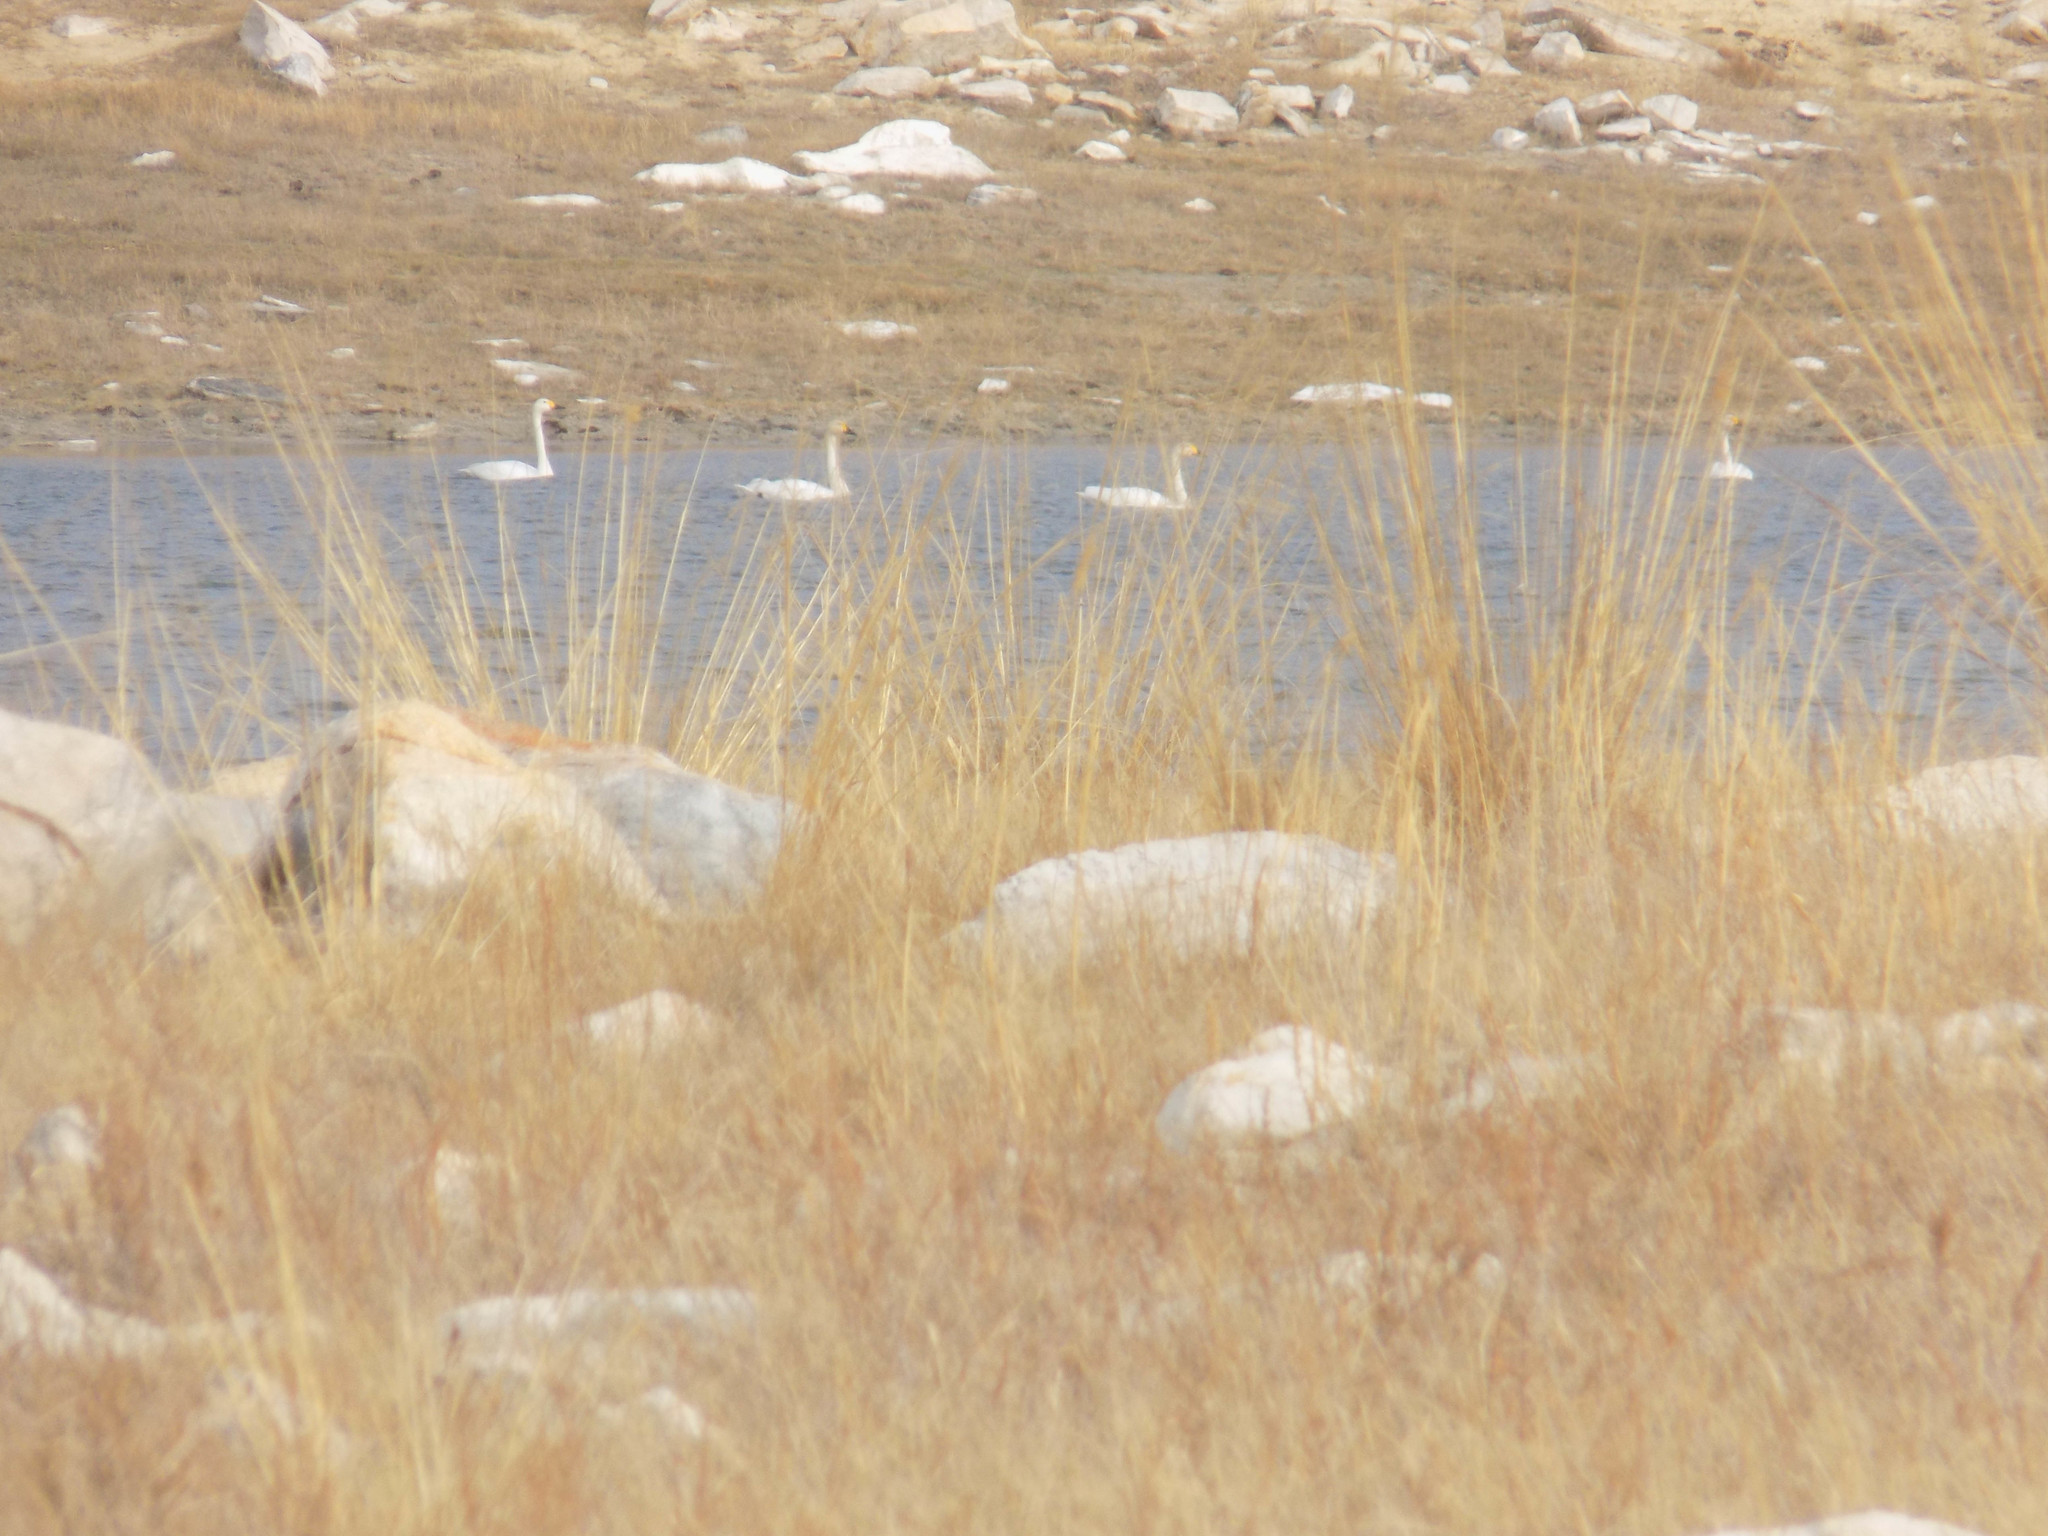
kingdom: Animalia
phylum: Chordata
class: Aves
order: Anseriformes
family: Anatidae
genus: Cygnus
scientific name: Cygnus columbianus
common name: Tundra swan
